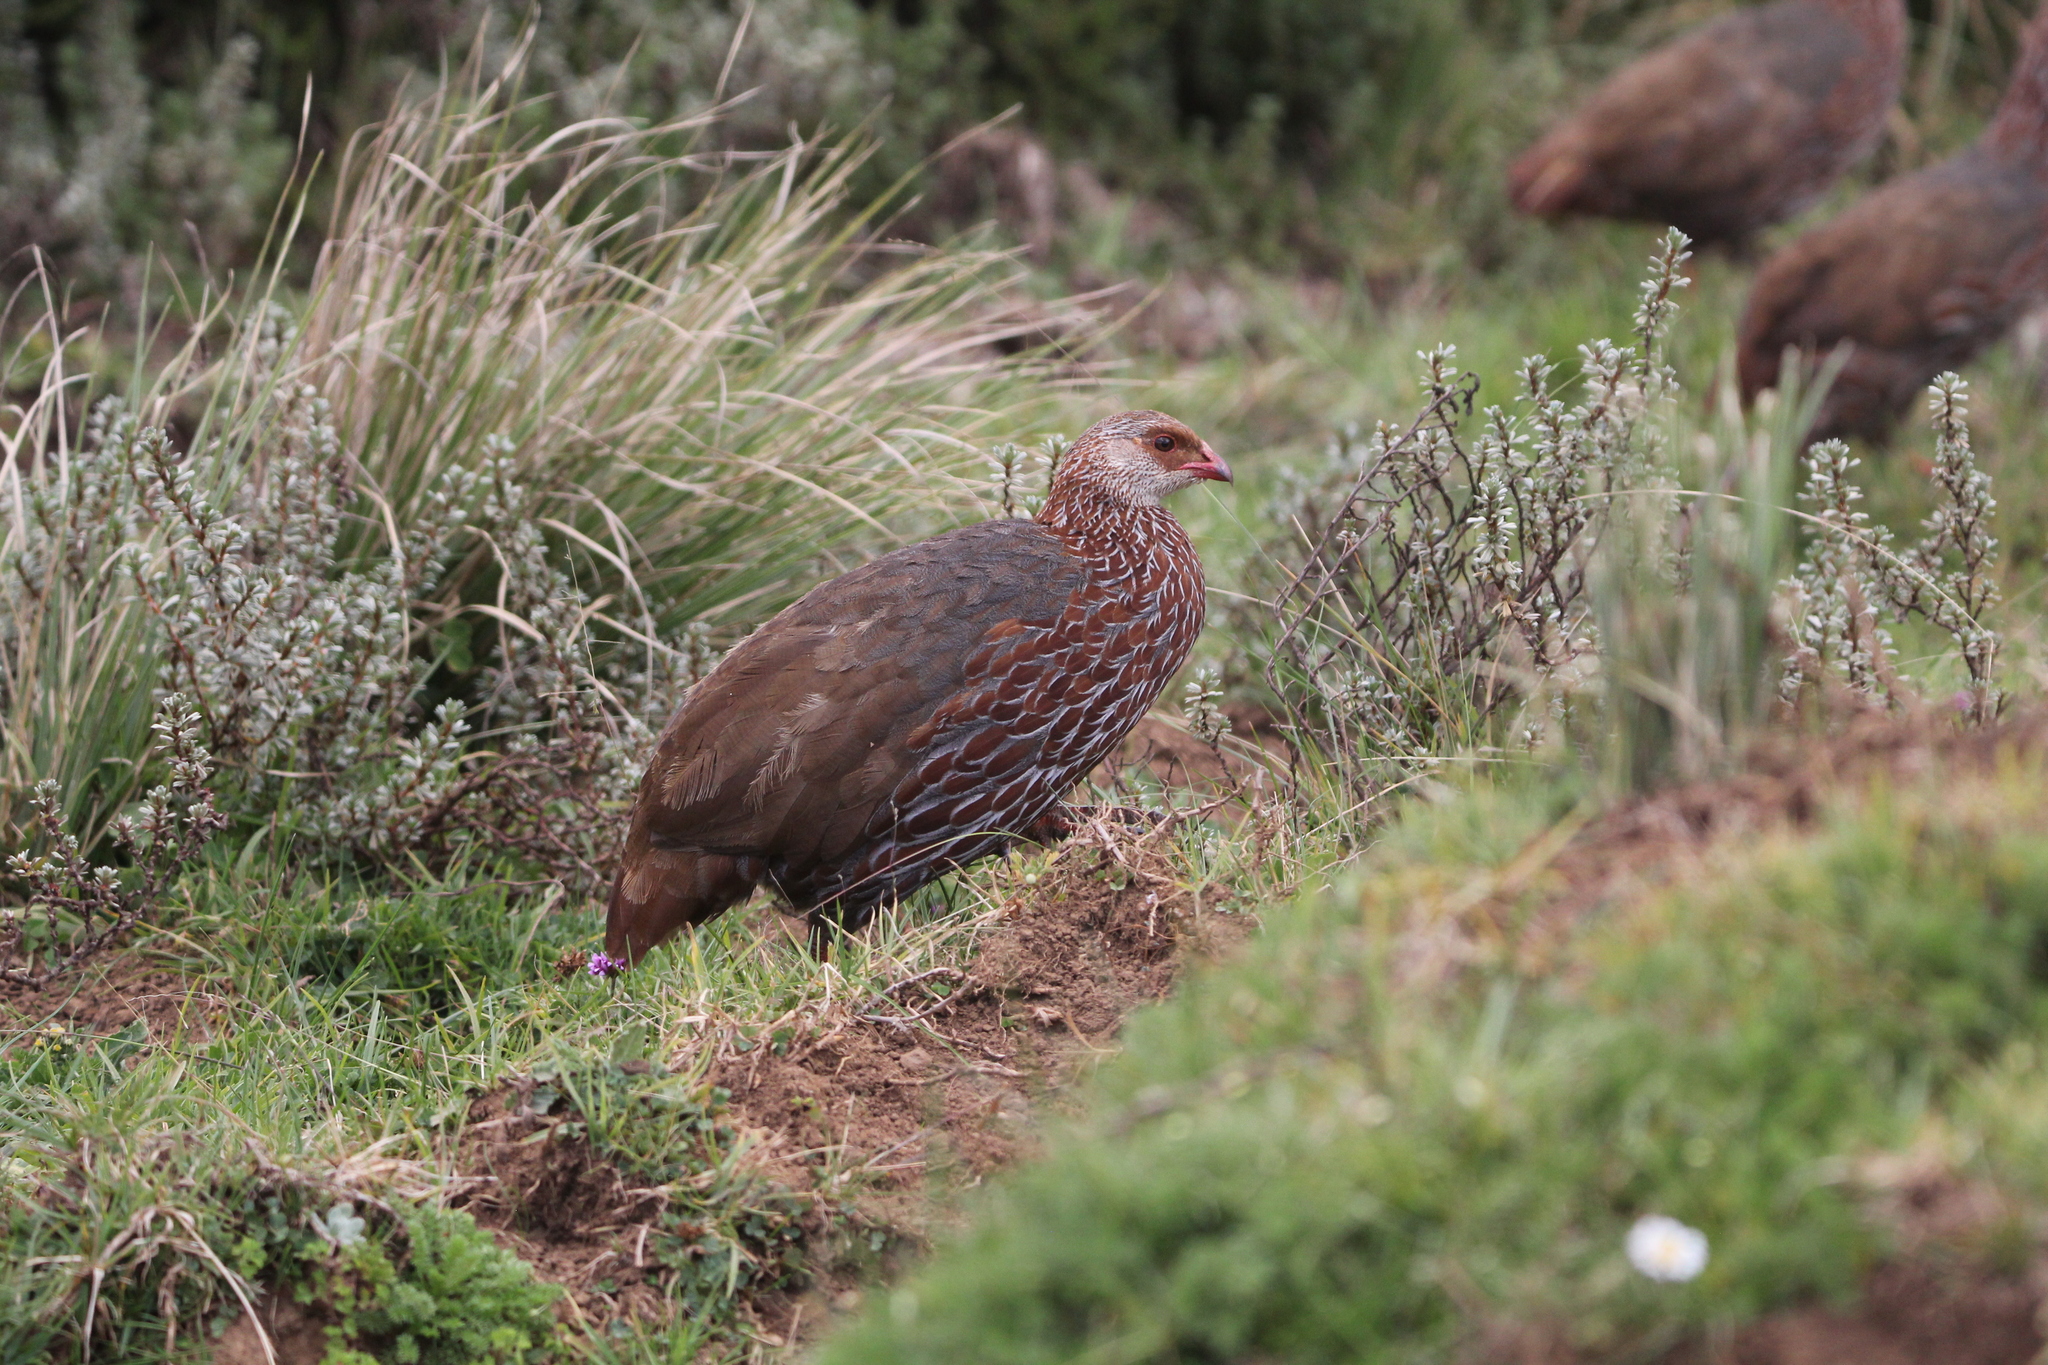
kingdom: Animalia
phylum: Chordata
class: Aves
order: Galliformes
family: Phasianidae
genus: Pternistis
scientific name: Pternistis jacksoni
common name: Jackson's francolin
